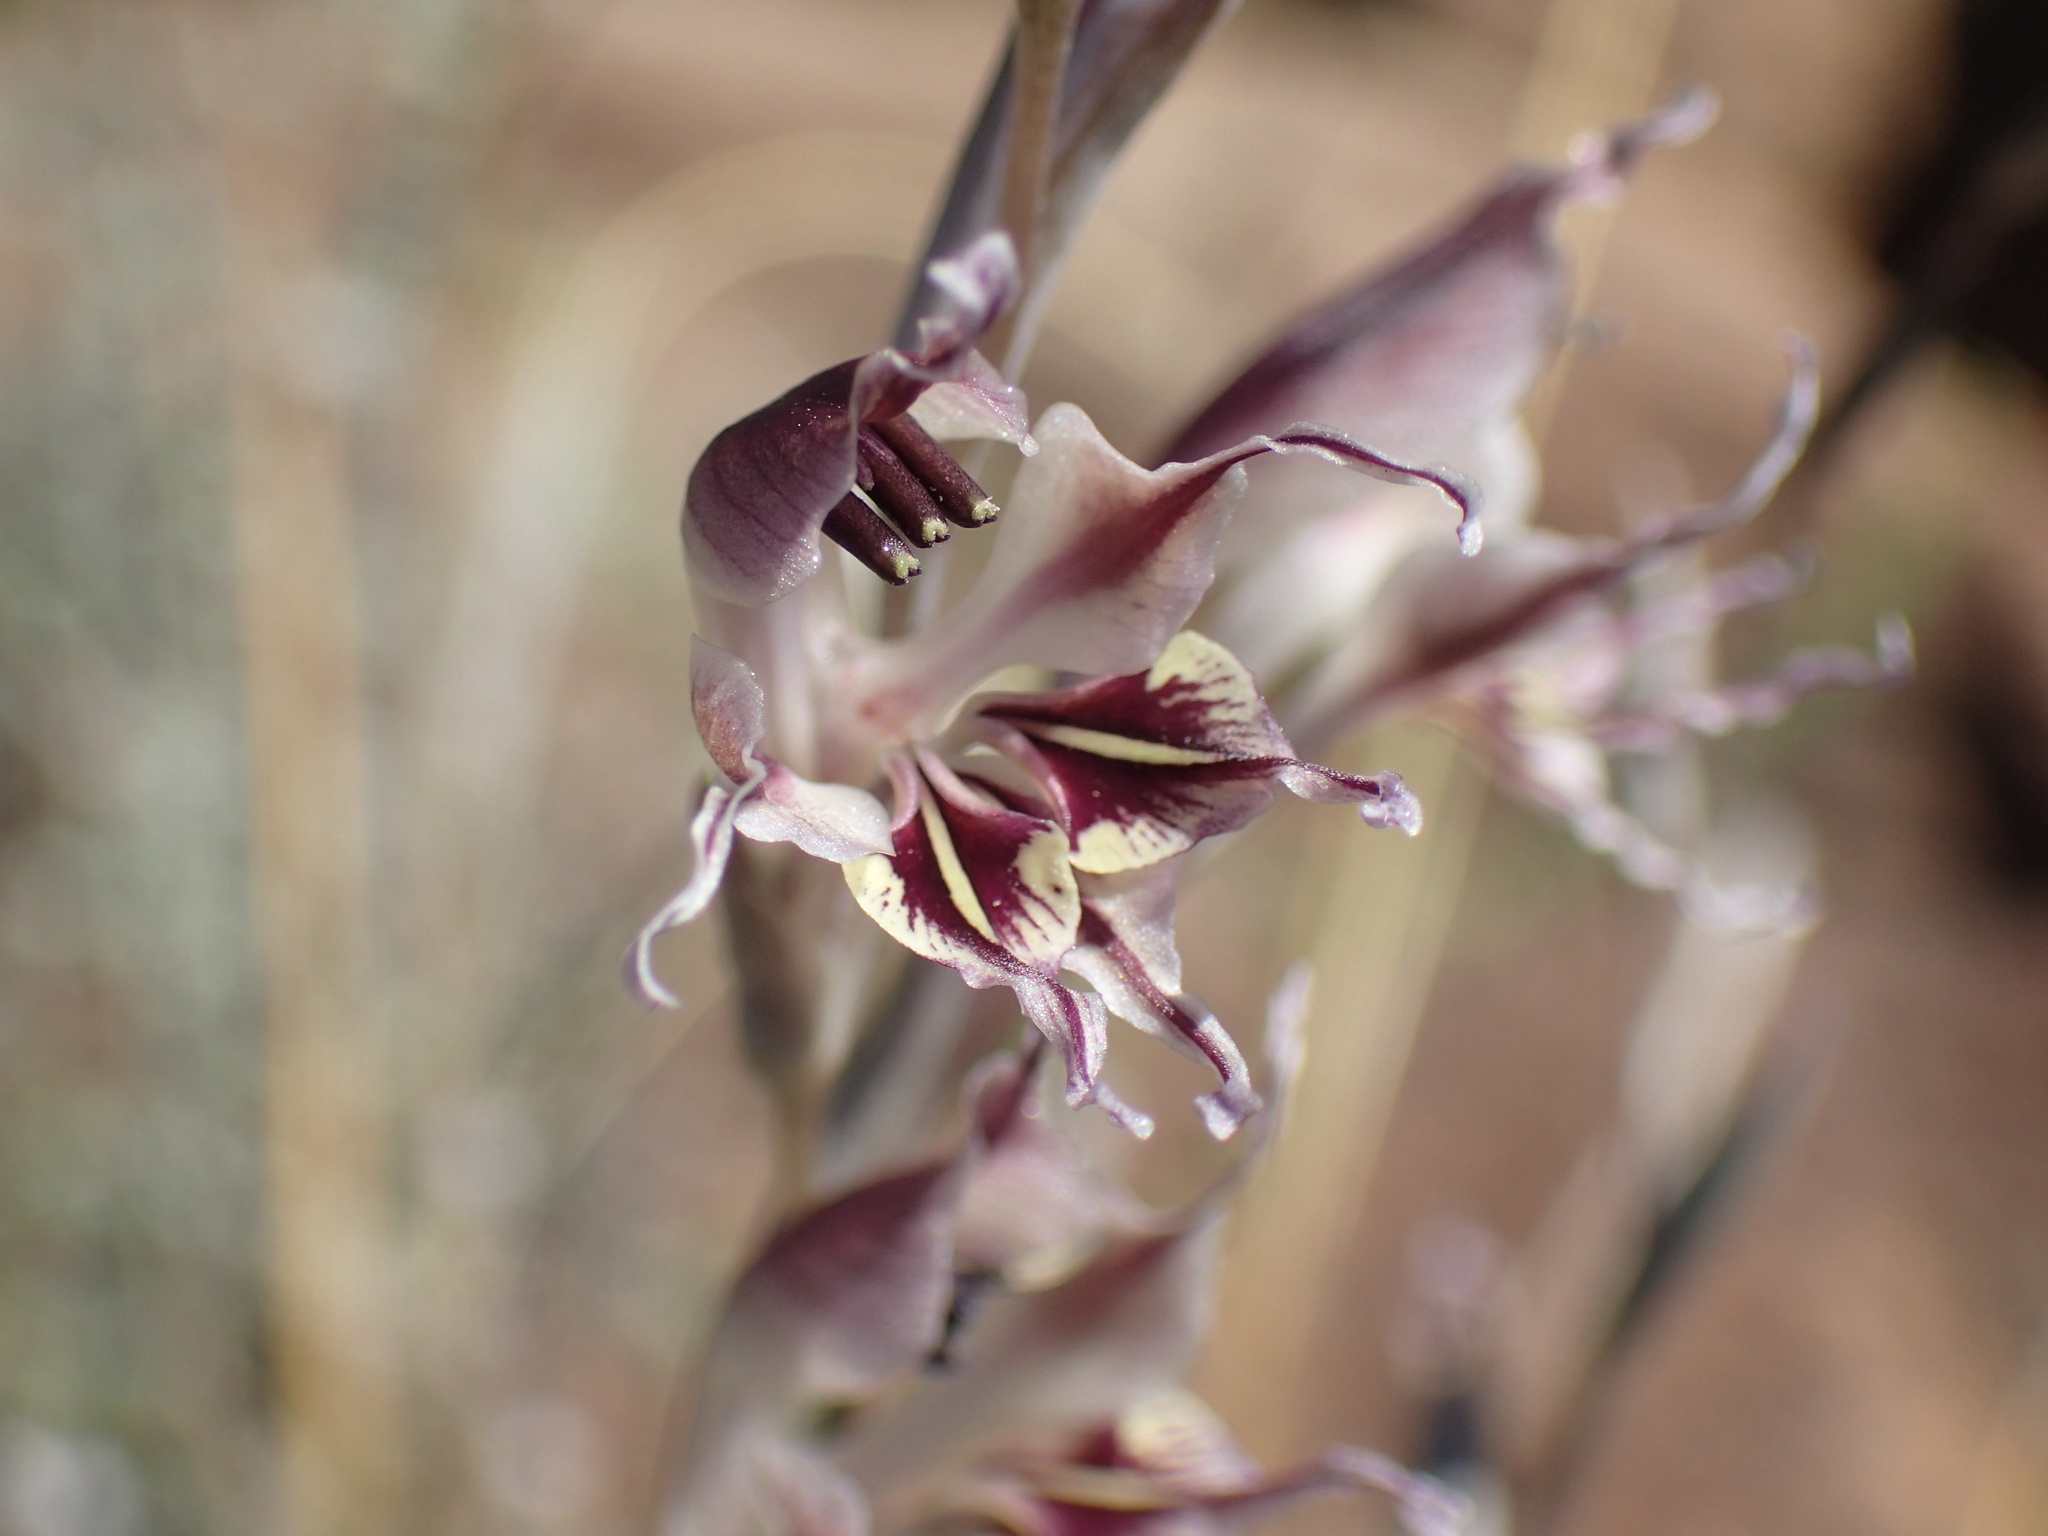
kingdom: Plantae
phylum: Tracheophyta
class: Liliopsida
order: Asparagales
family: Iridaceae
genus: Gladiolus
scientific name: Gladiolus permeabilis
